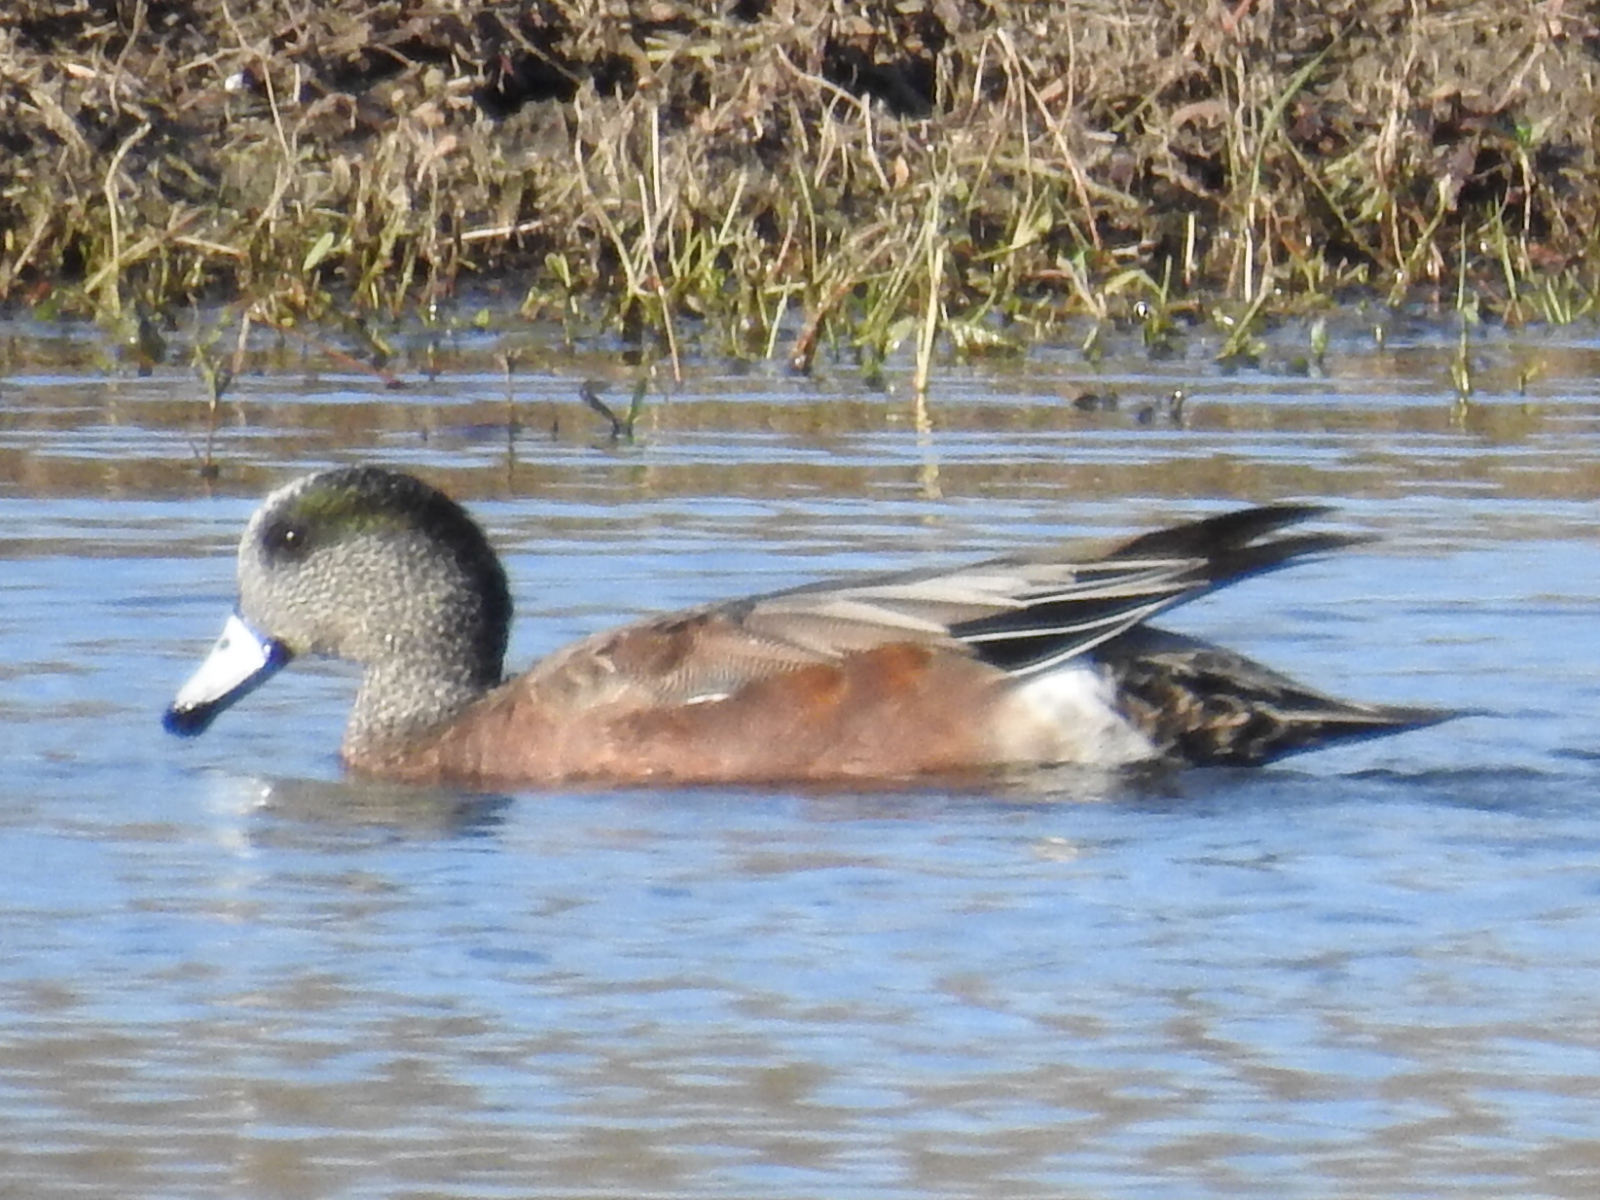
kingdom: Animalia
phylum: Chordata
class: Aves
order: Anseriformes
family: Anatidae
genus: Mareca
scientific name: Mareca americana
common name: American wigeon
